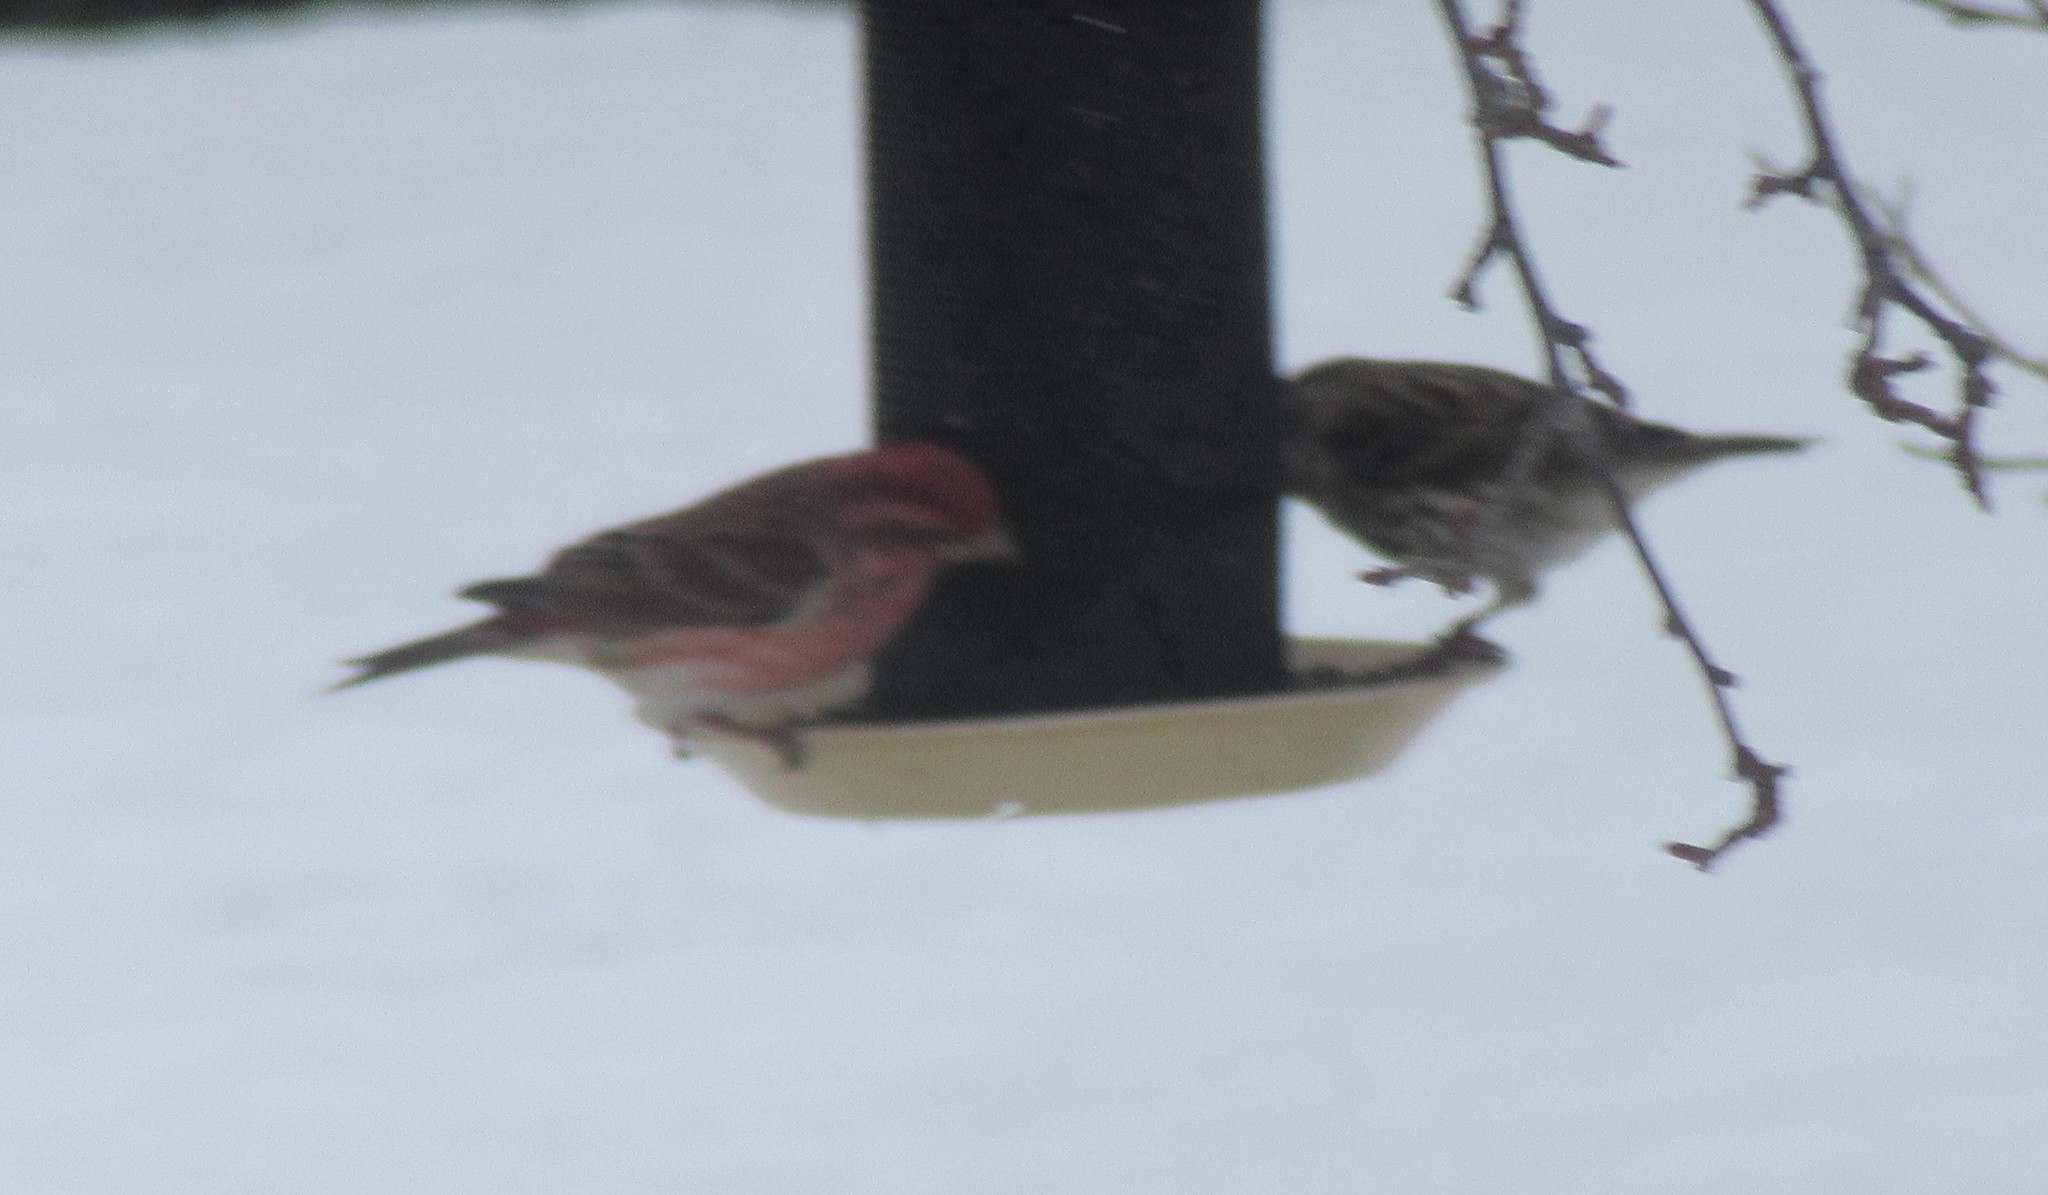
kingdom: Animalia
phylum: Chordata
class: Aves
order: Passeriformes
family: Fringillidae
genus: Haemorhous
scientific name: Haemorhous purpureus
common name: Purple finch
